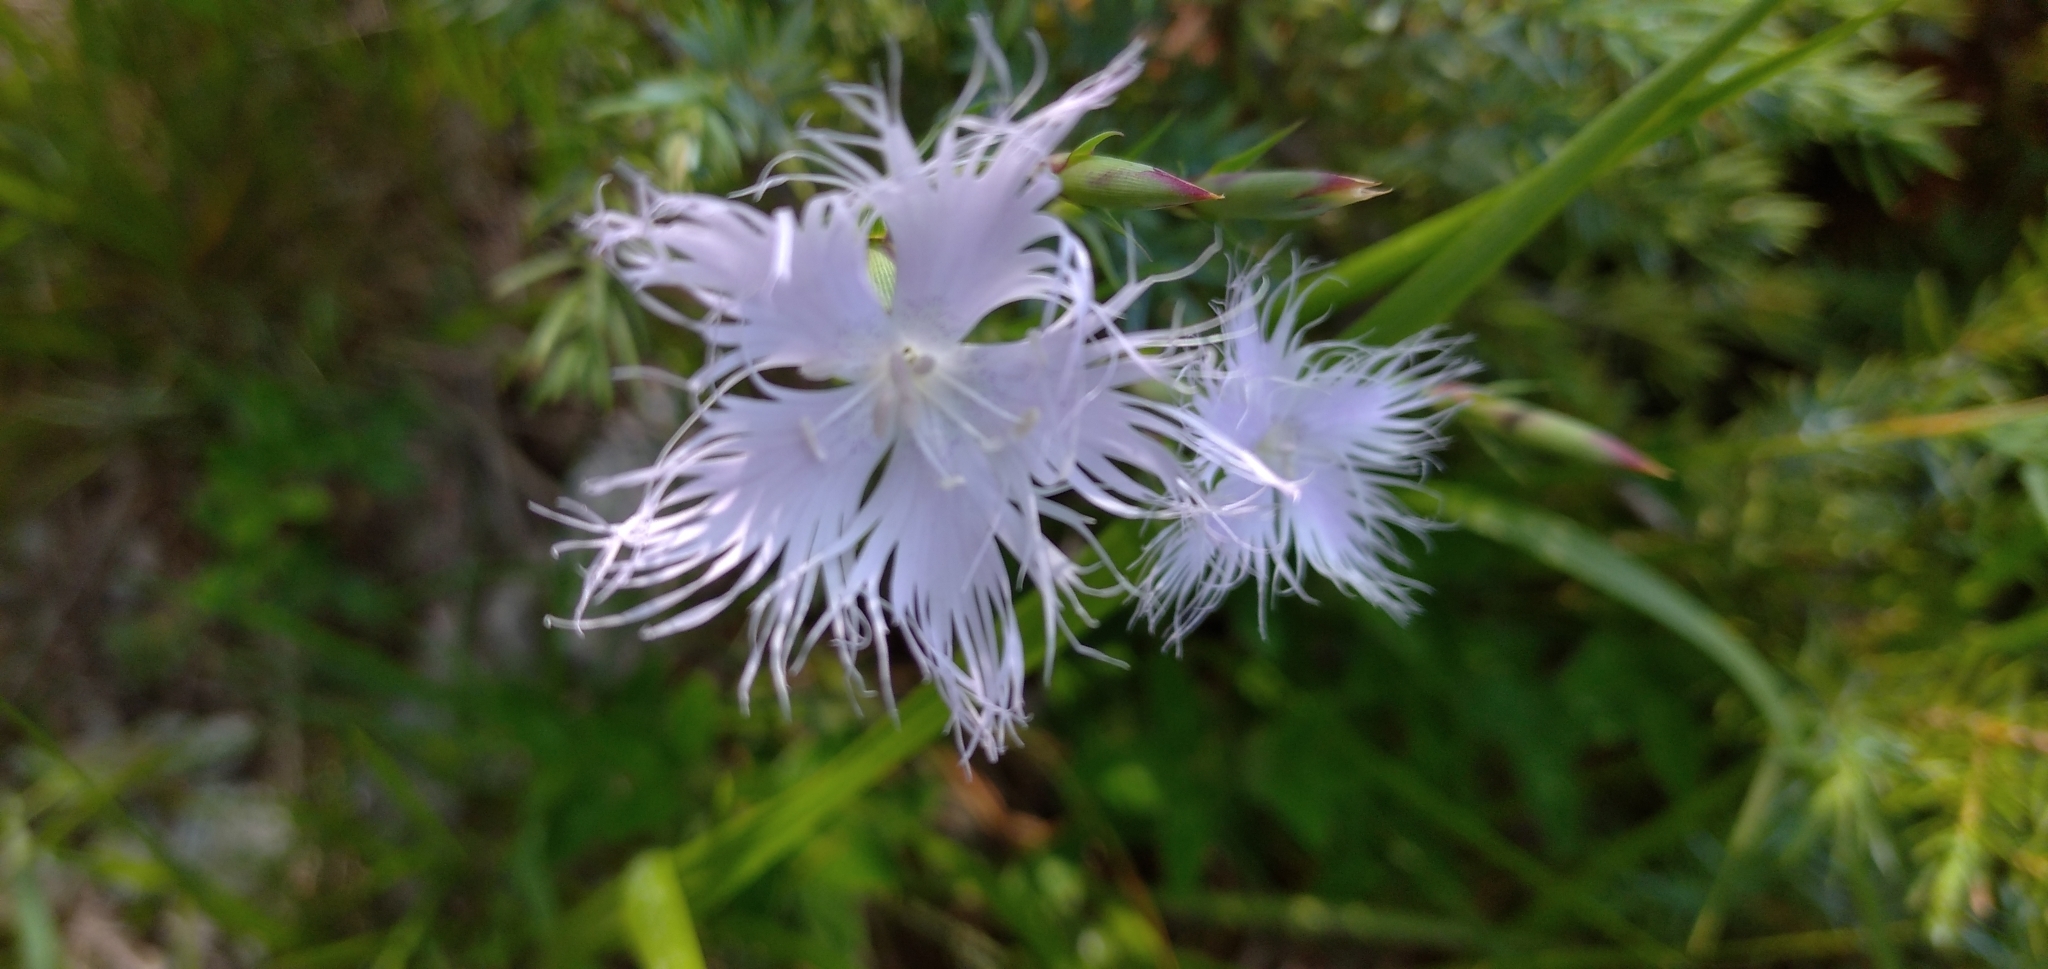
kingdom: Plantae
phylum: Tracheophyta
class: Magnoliopsida
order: Caryophyllales
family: Caryophyllaceae
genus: Dianthus
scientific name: Dianthus hyssopifolius
